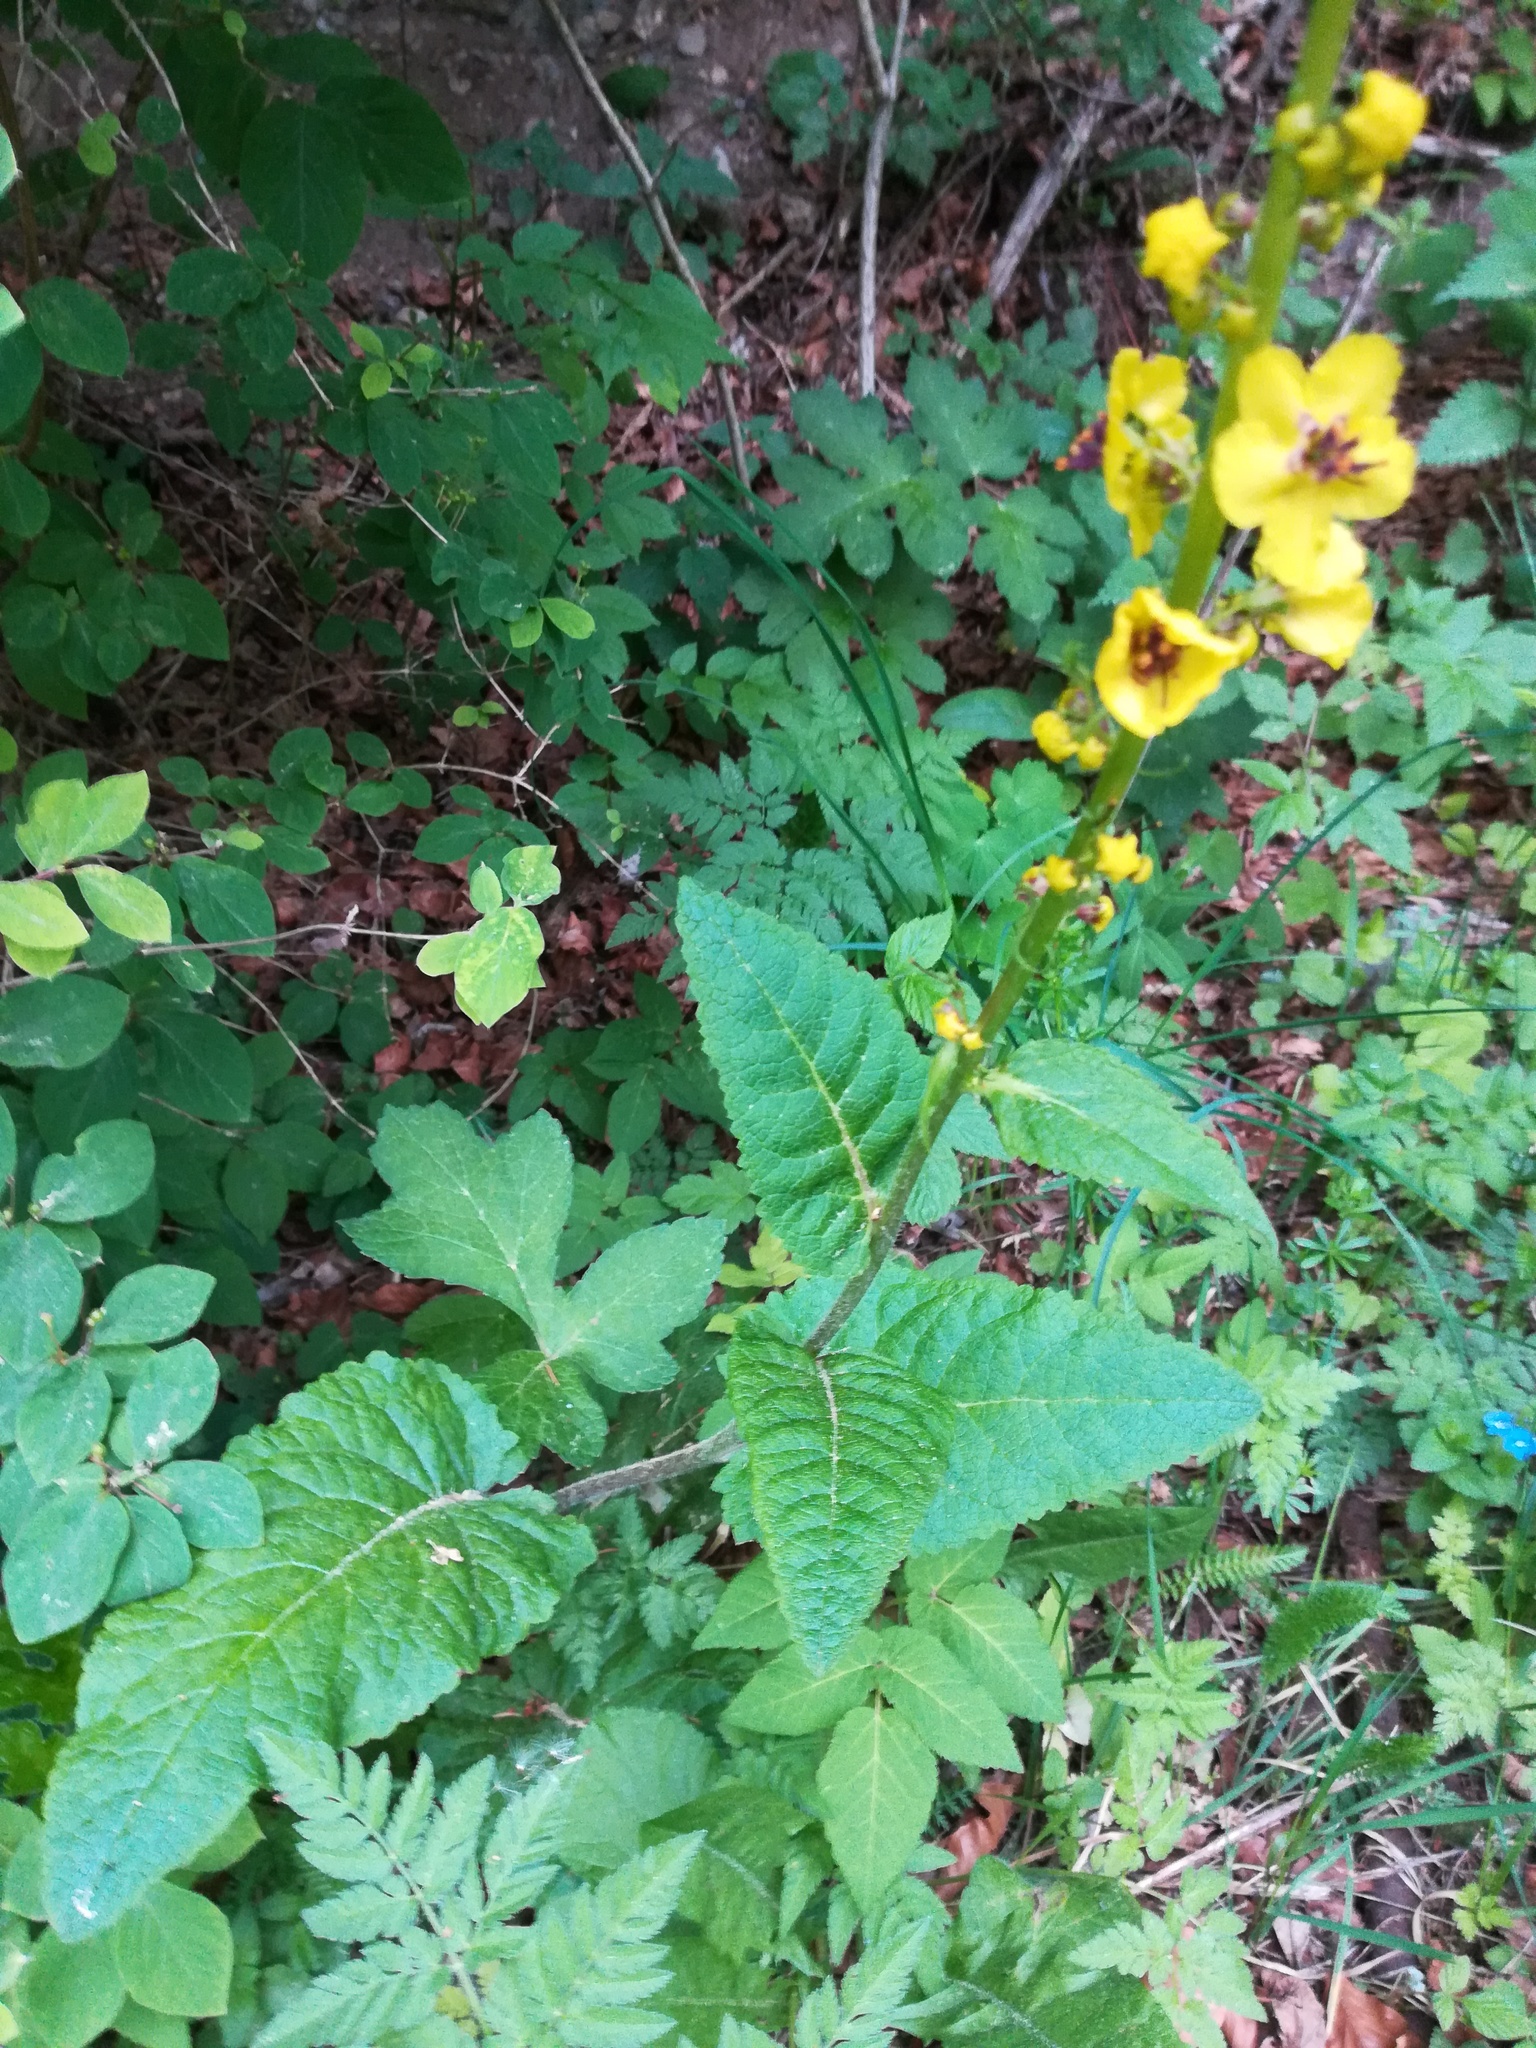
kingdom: Plantae
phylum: Tracheophyta
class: Magnoliopsida
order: Lamiales
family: Scrophulariaceae
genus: Verbascum
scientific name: Verbascum nigrum
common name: Dark mullein
